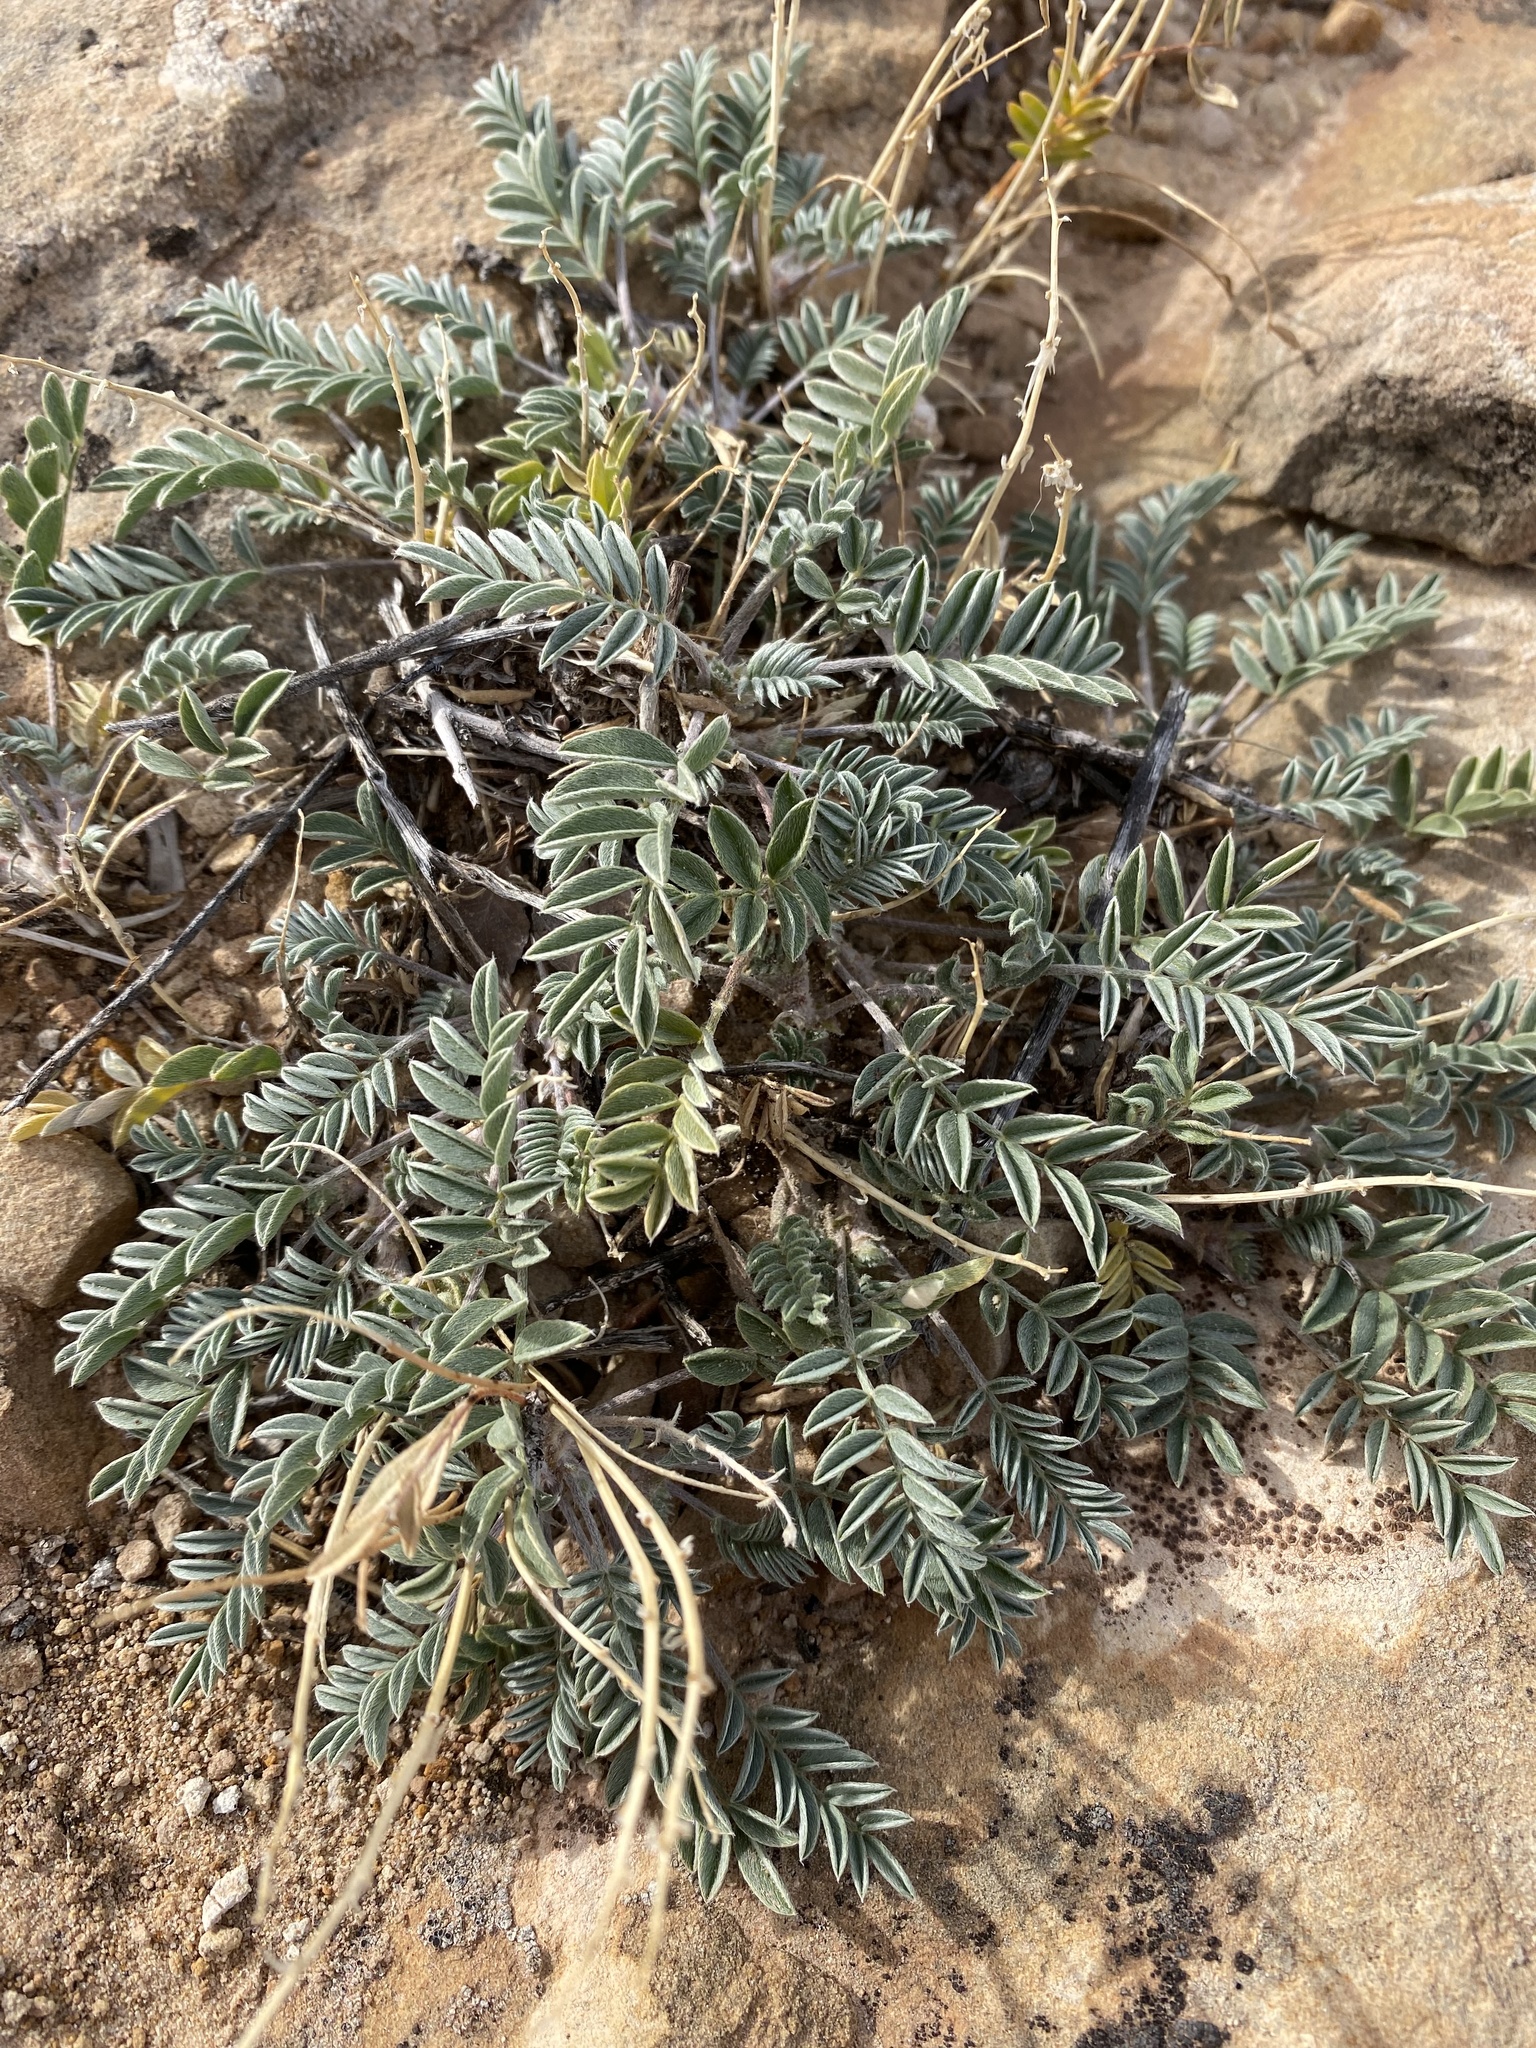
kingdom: Plantae
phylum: Tracheophyta
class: Magnoliopsida
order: Fabales
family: Fabaceae
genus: Astragalus
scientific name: Astragalus
